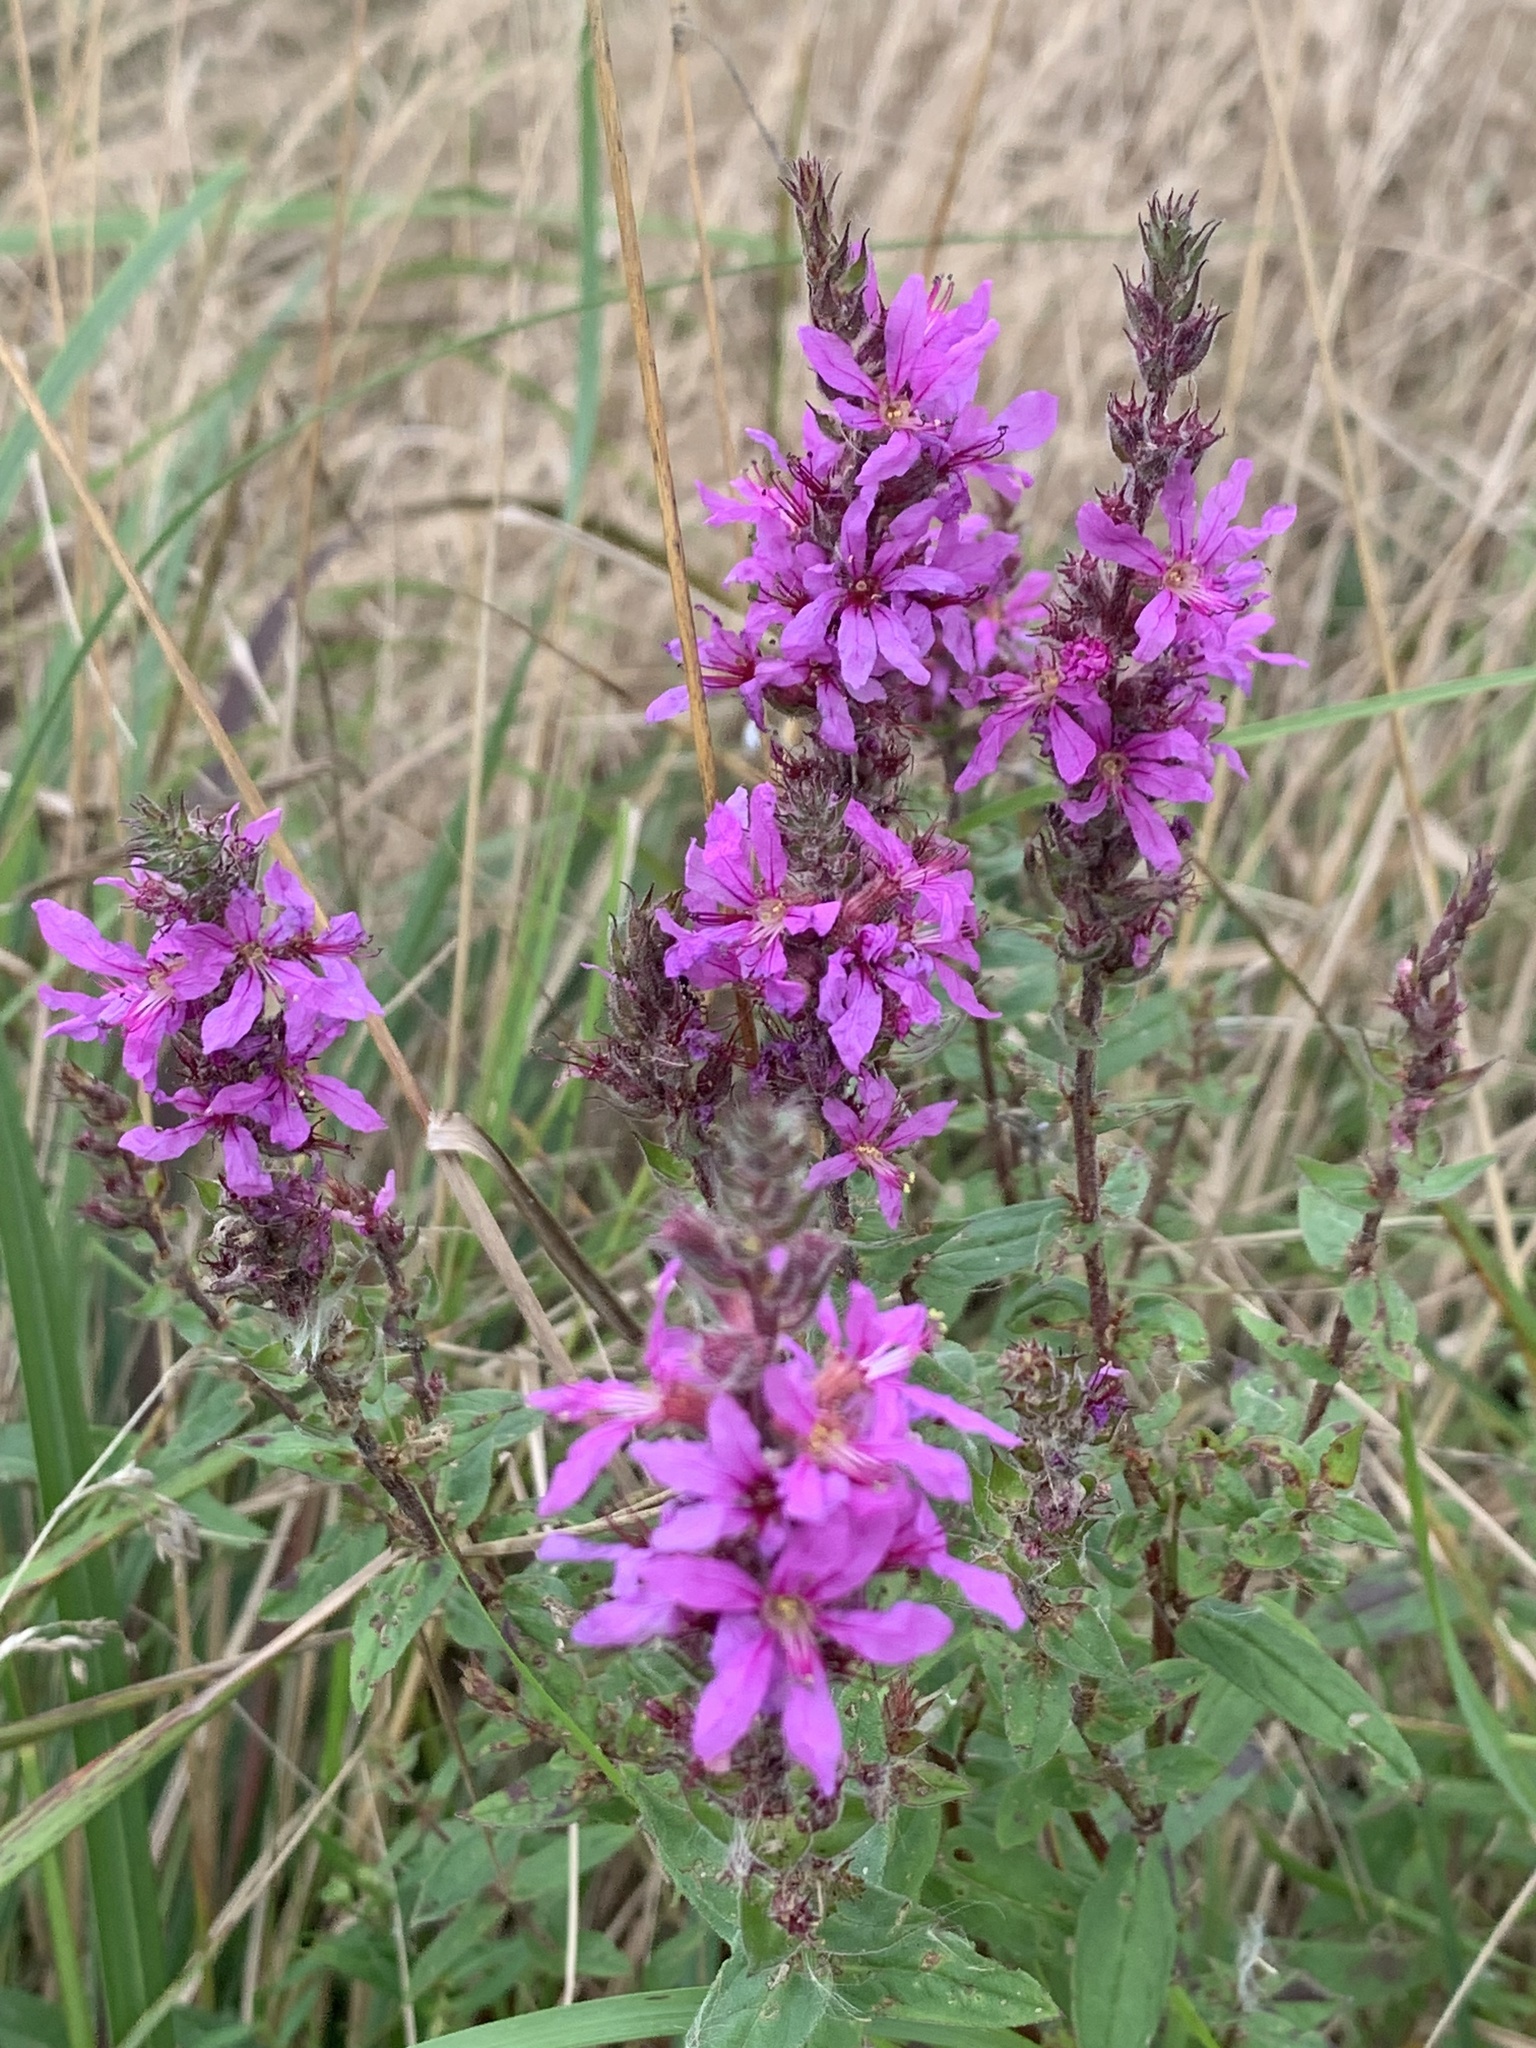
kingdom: Plantae
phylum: Tracheophyta
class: Magnoliopsida
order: Myrtales
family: Lythraceae
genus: Lythrum
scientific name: Lythrum salicaria
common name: Purple loosestrife
